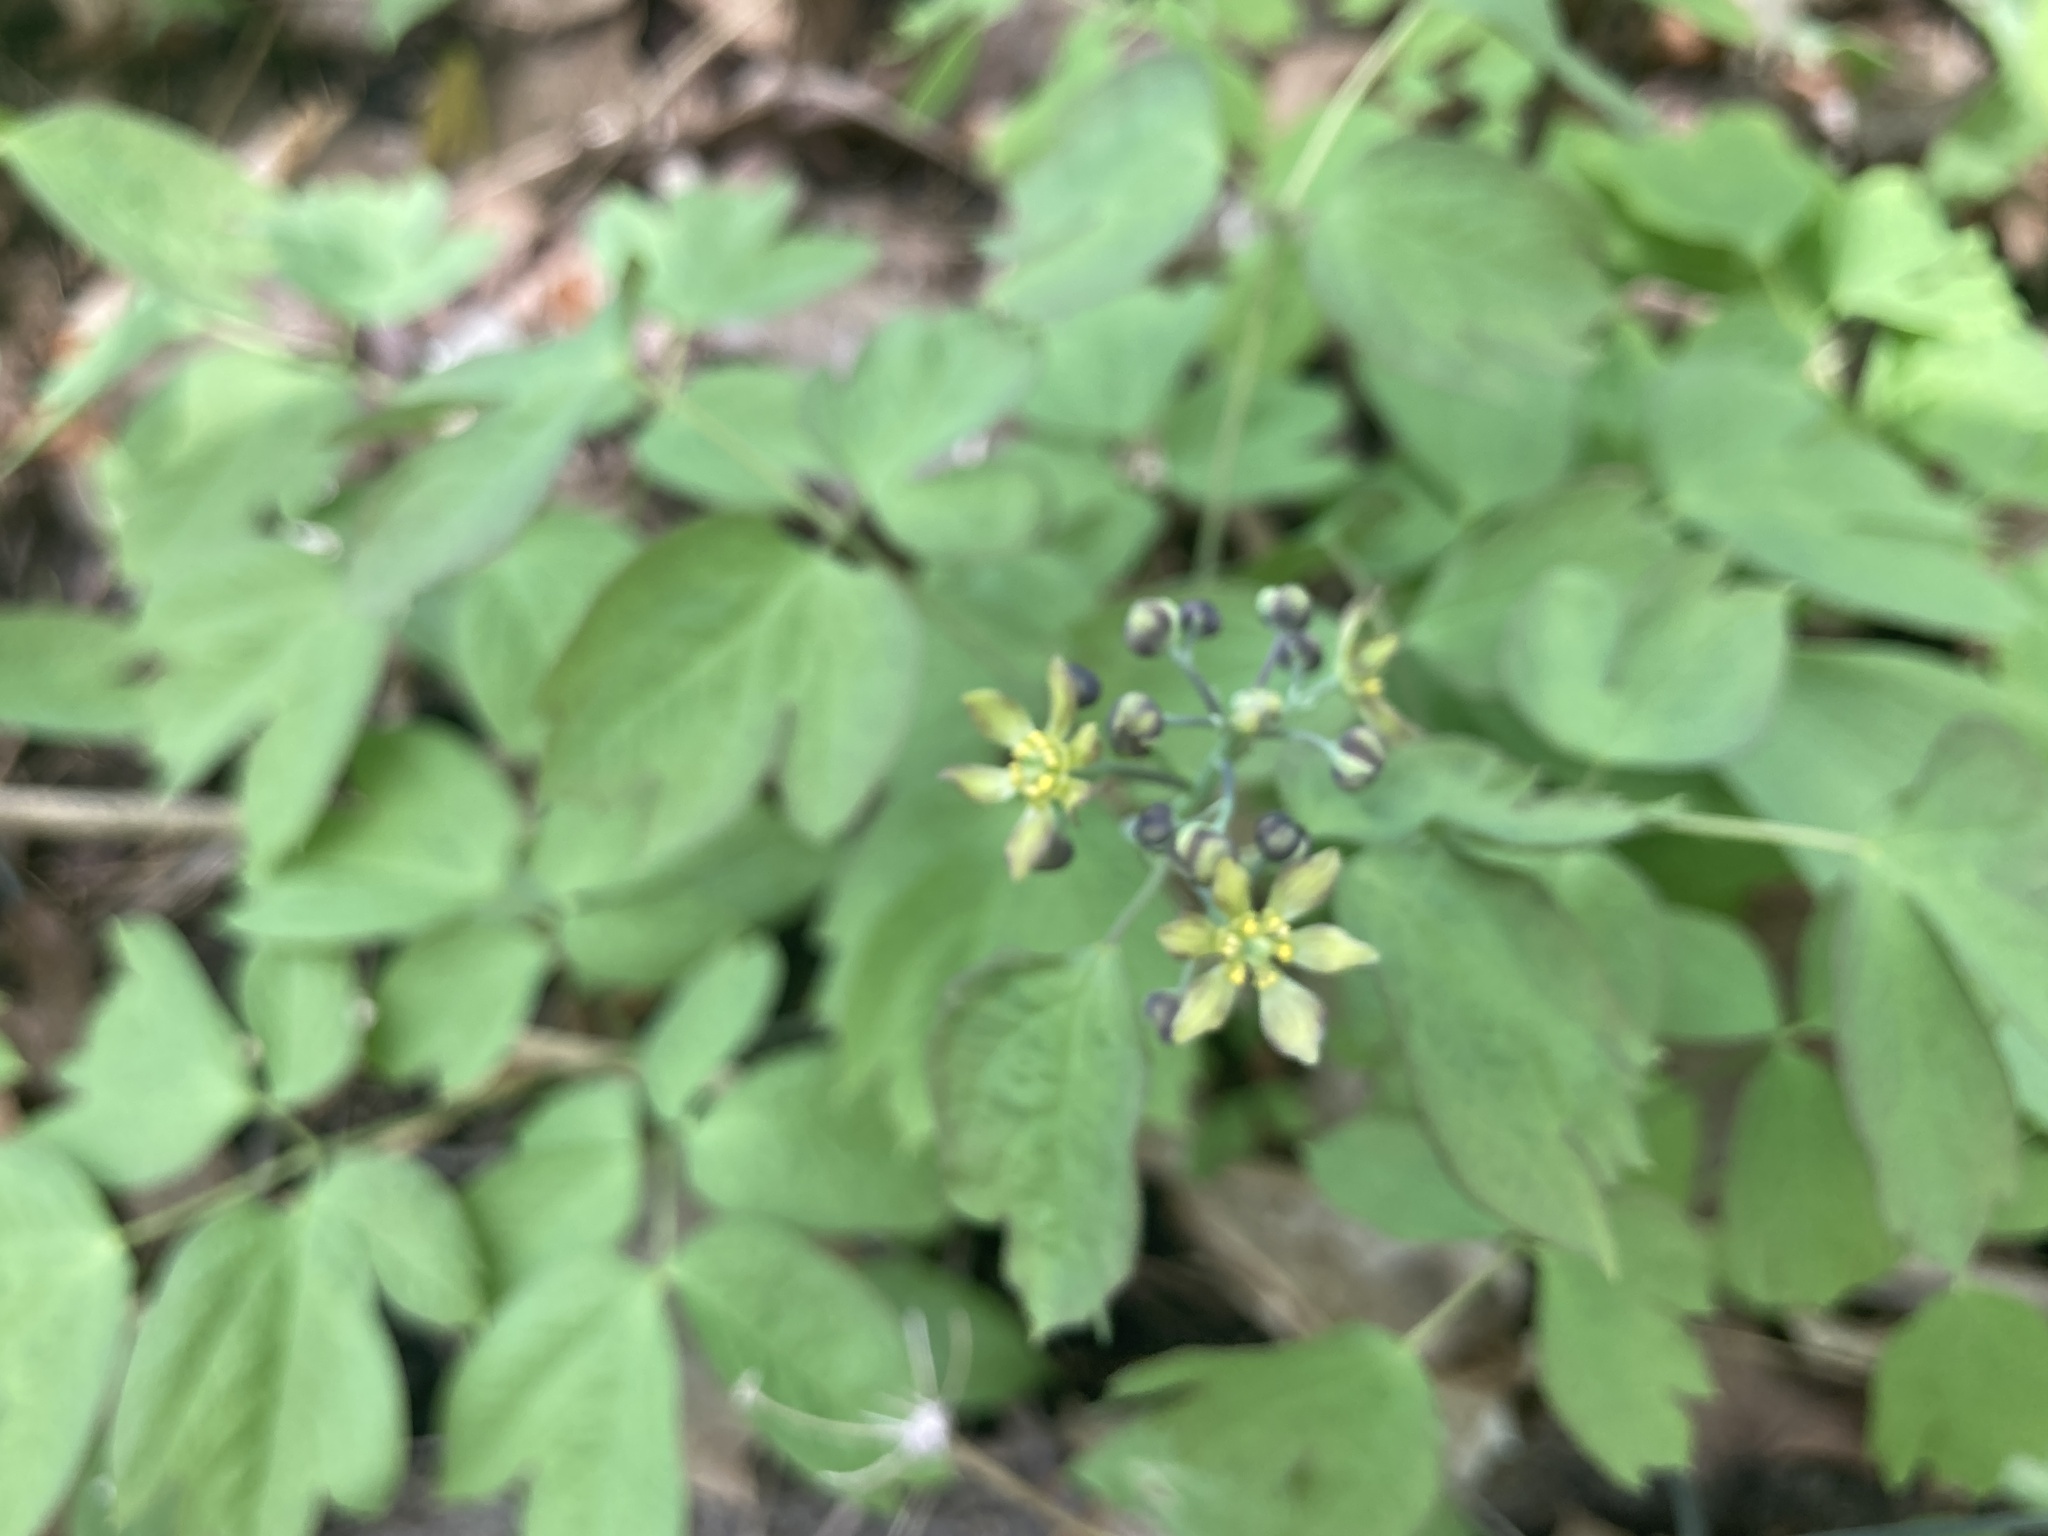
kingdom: Plantae
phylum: Tracheophyta
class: Magnoliopsida
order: Ranunculales
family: Berberidaceae
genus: Caulophyllum
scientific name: Caulophyllum thalictroides
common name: Blue cohosh
